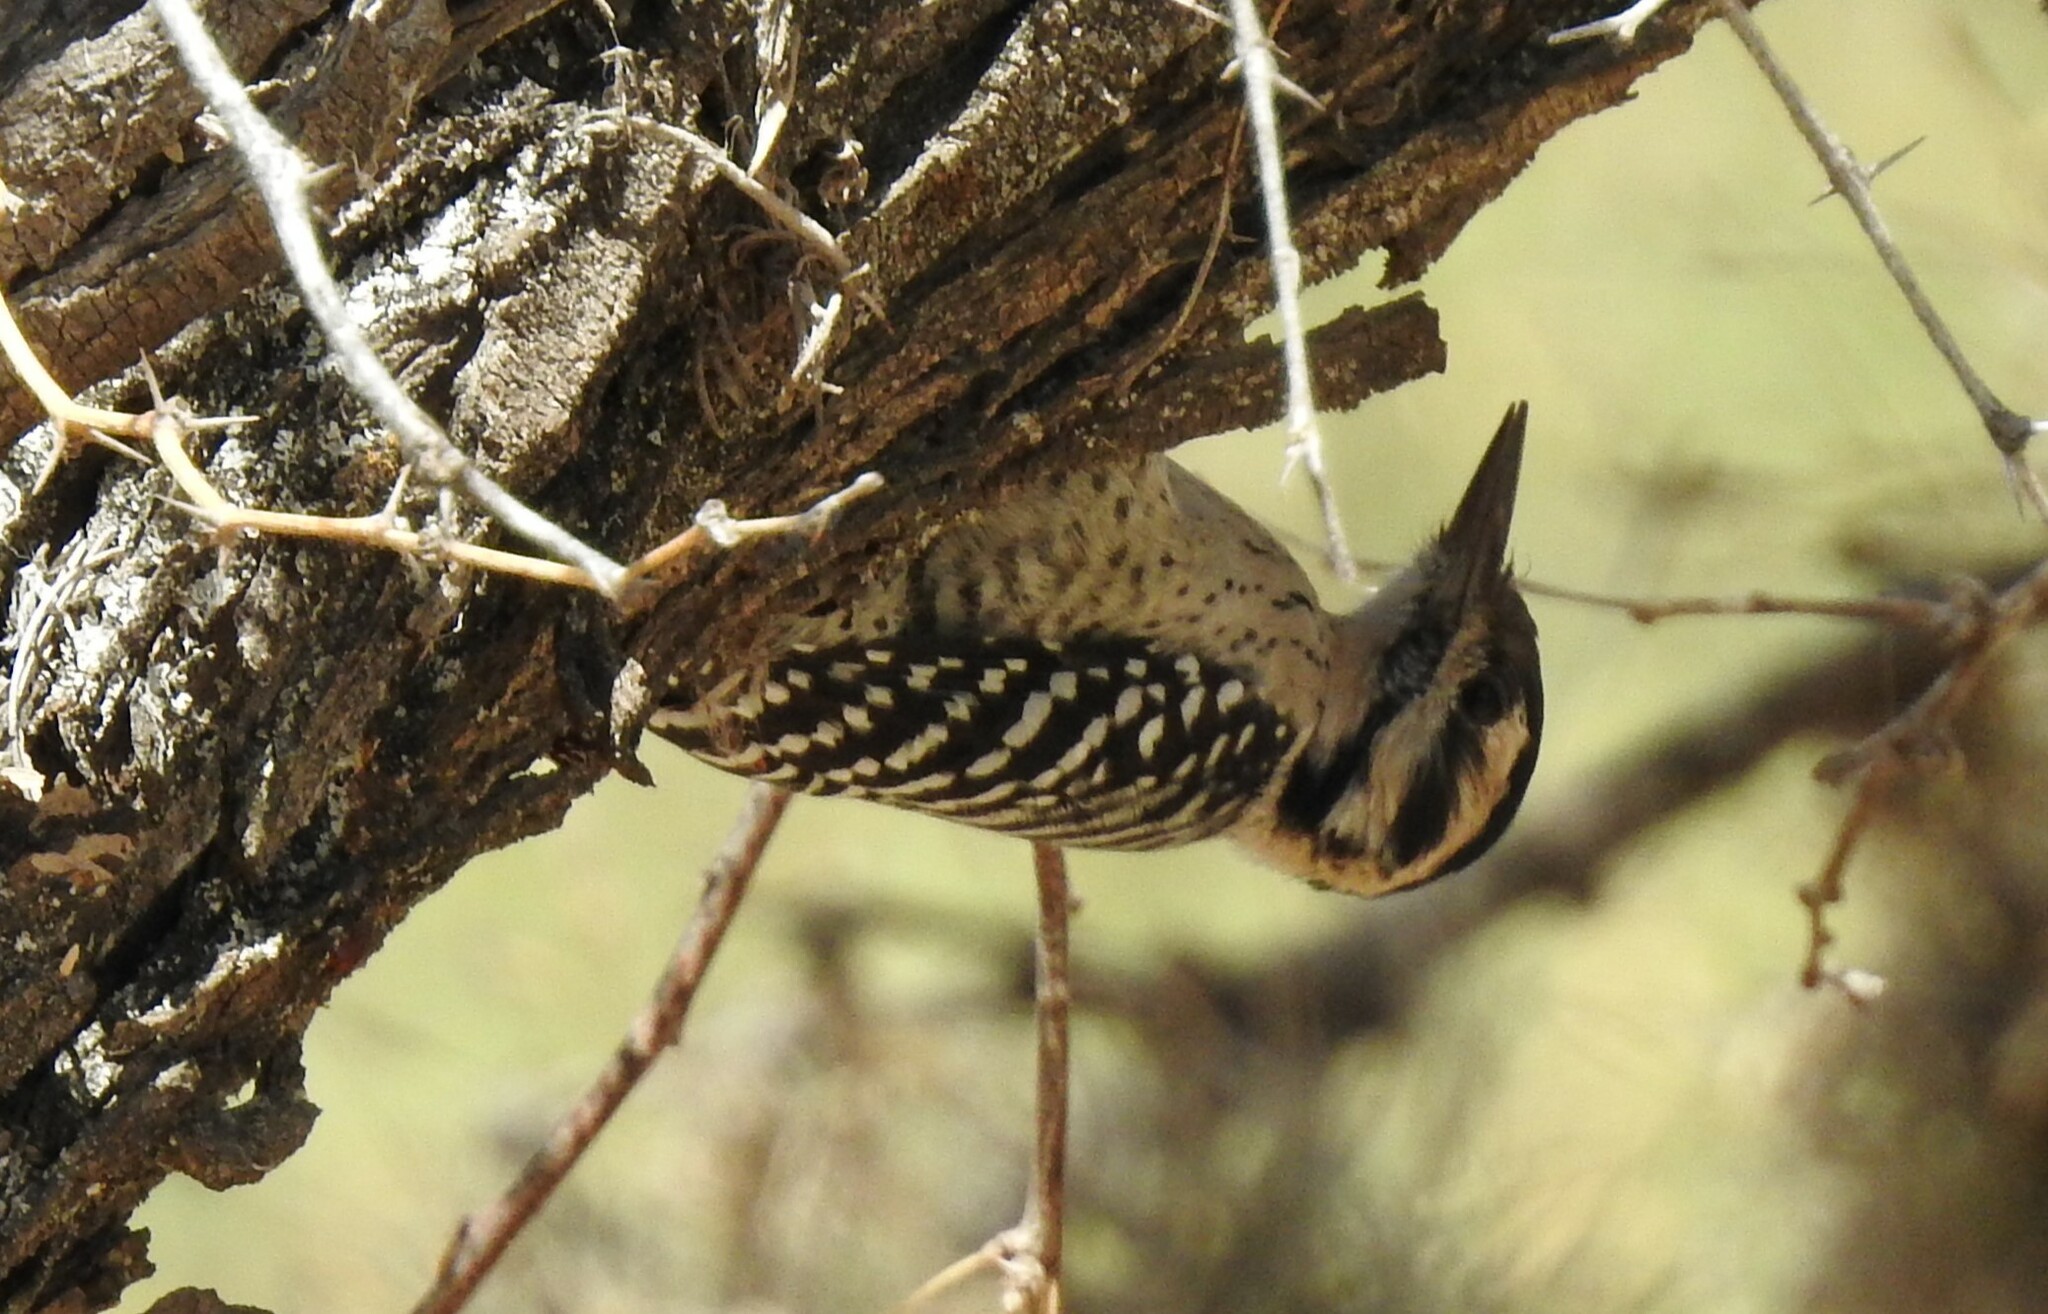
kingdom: Animalia
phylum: Chordata
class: Aves
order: Piciformes
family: Picidae
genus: Dryobates
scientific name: Dryobates scalaris
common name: Ladder-backed woodpecker
